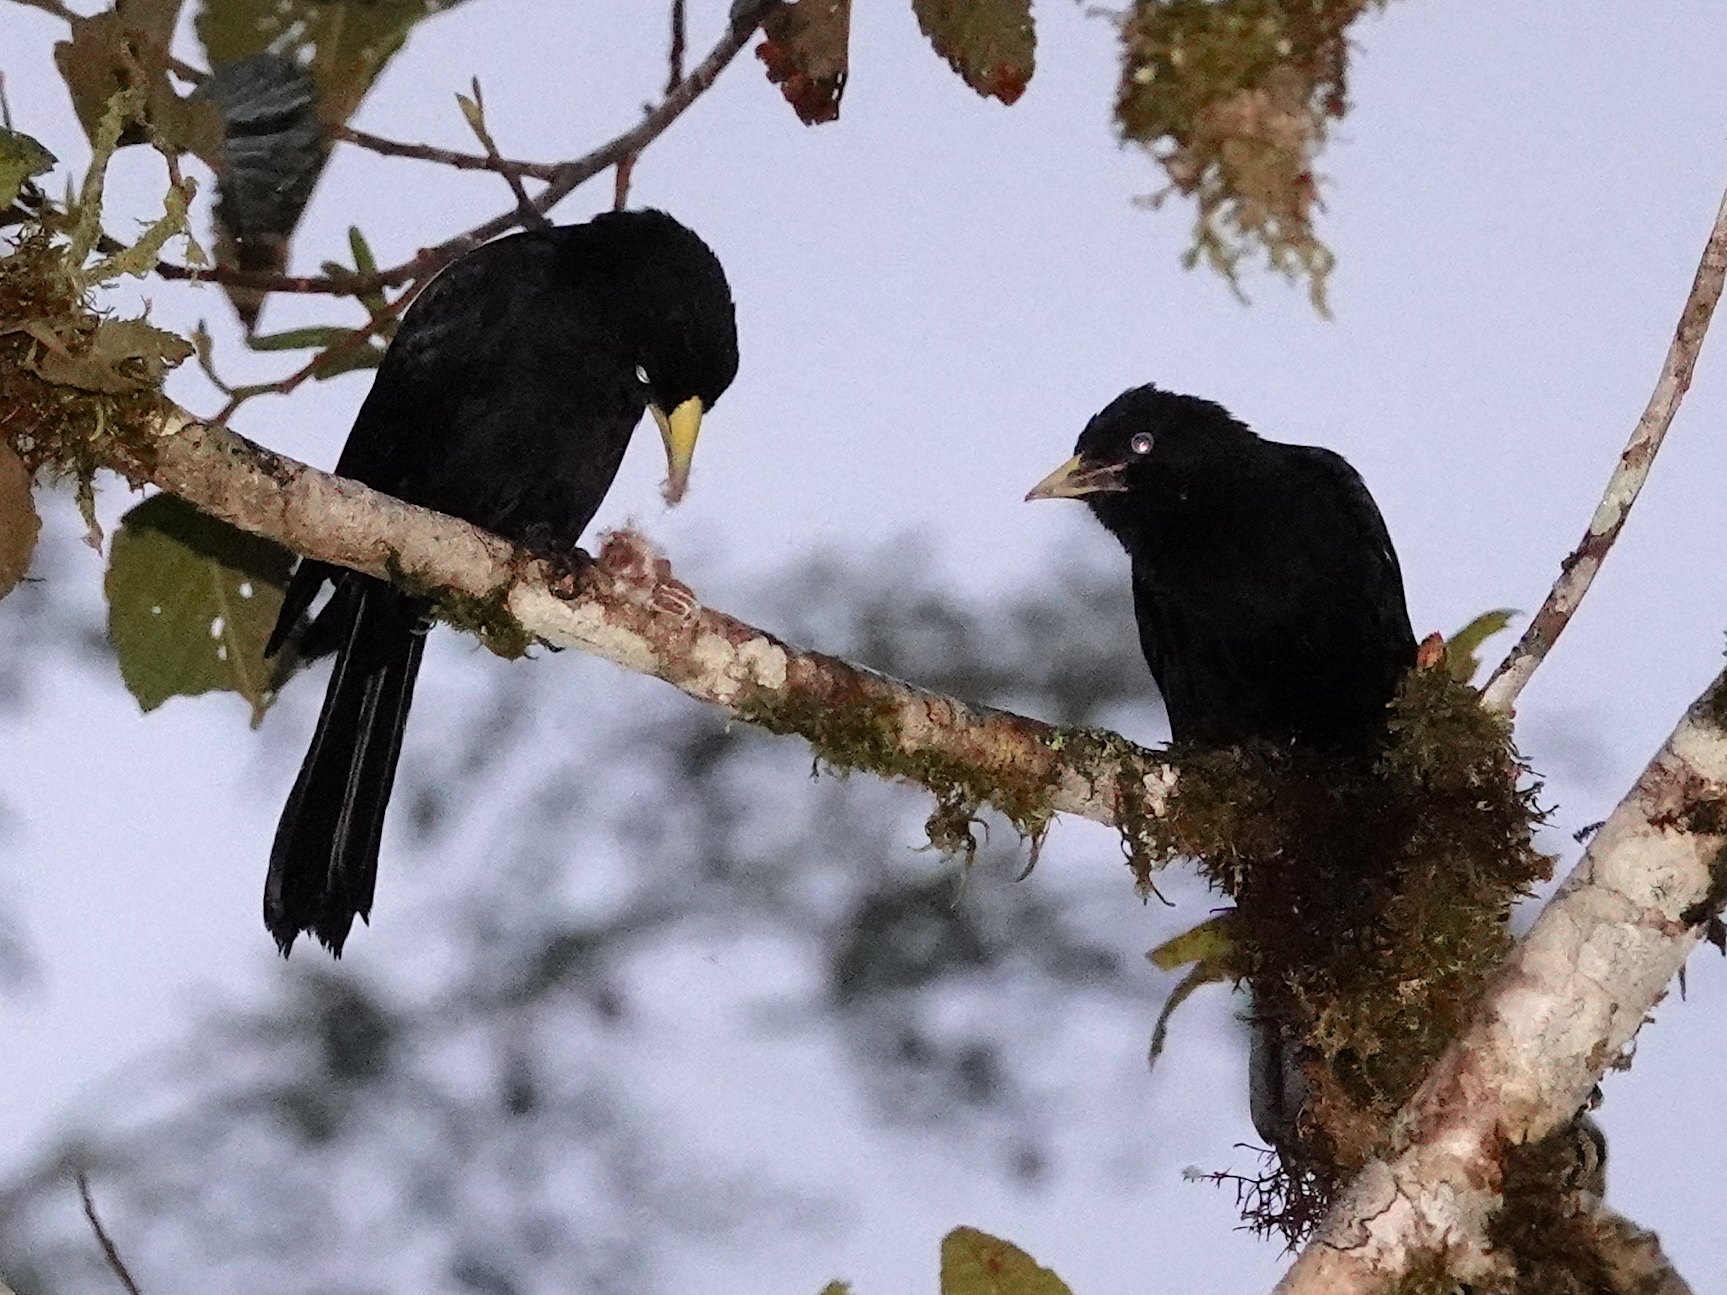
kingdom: Animalia
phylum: Chordata
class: Aves
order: Passeriformes
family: Icteridae
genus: Cacicus
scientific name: Cacicus uropygialis
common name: Scarlet-rumped cacique
